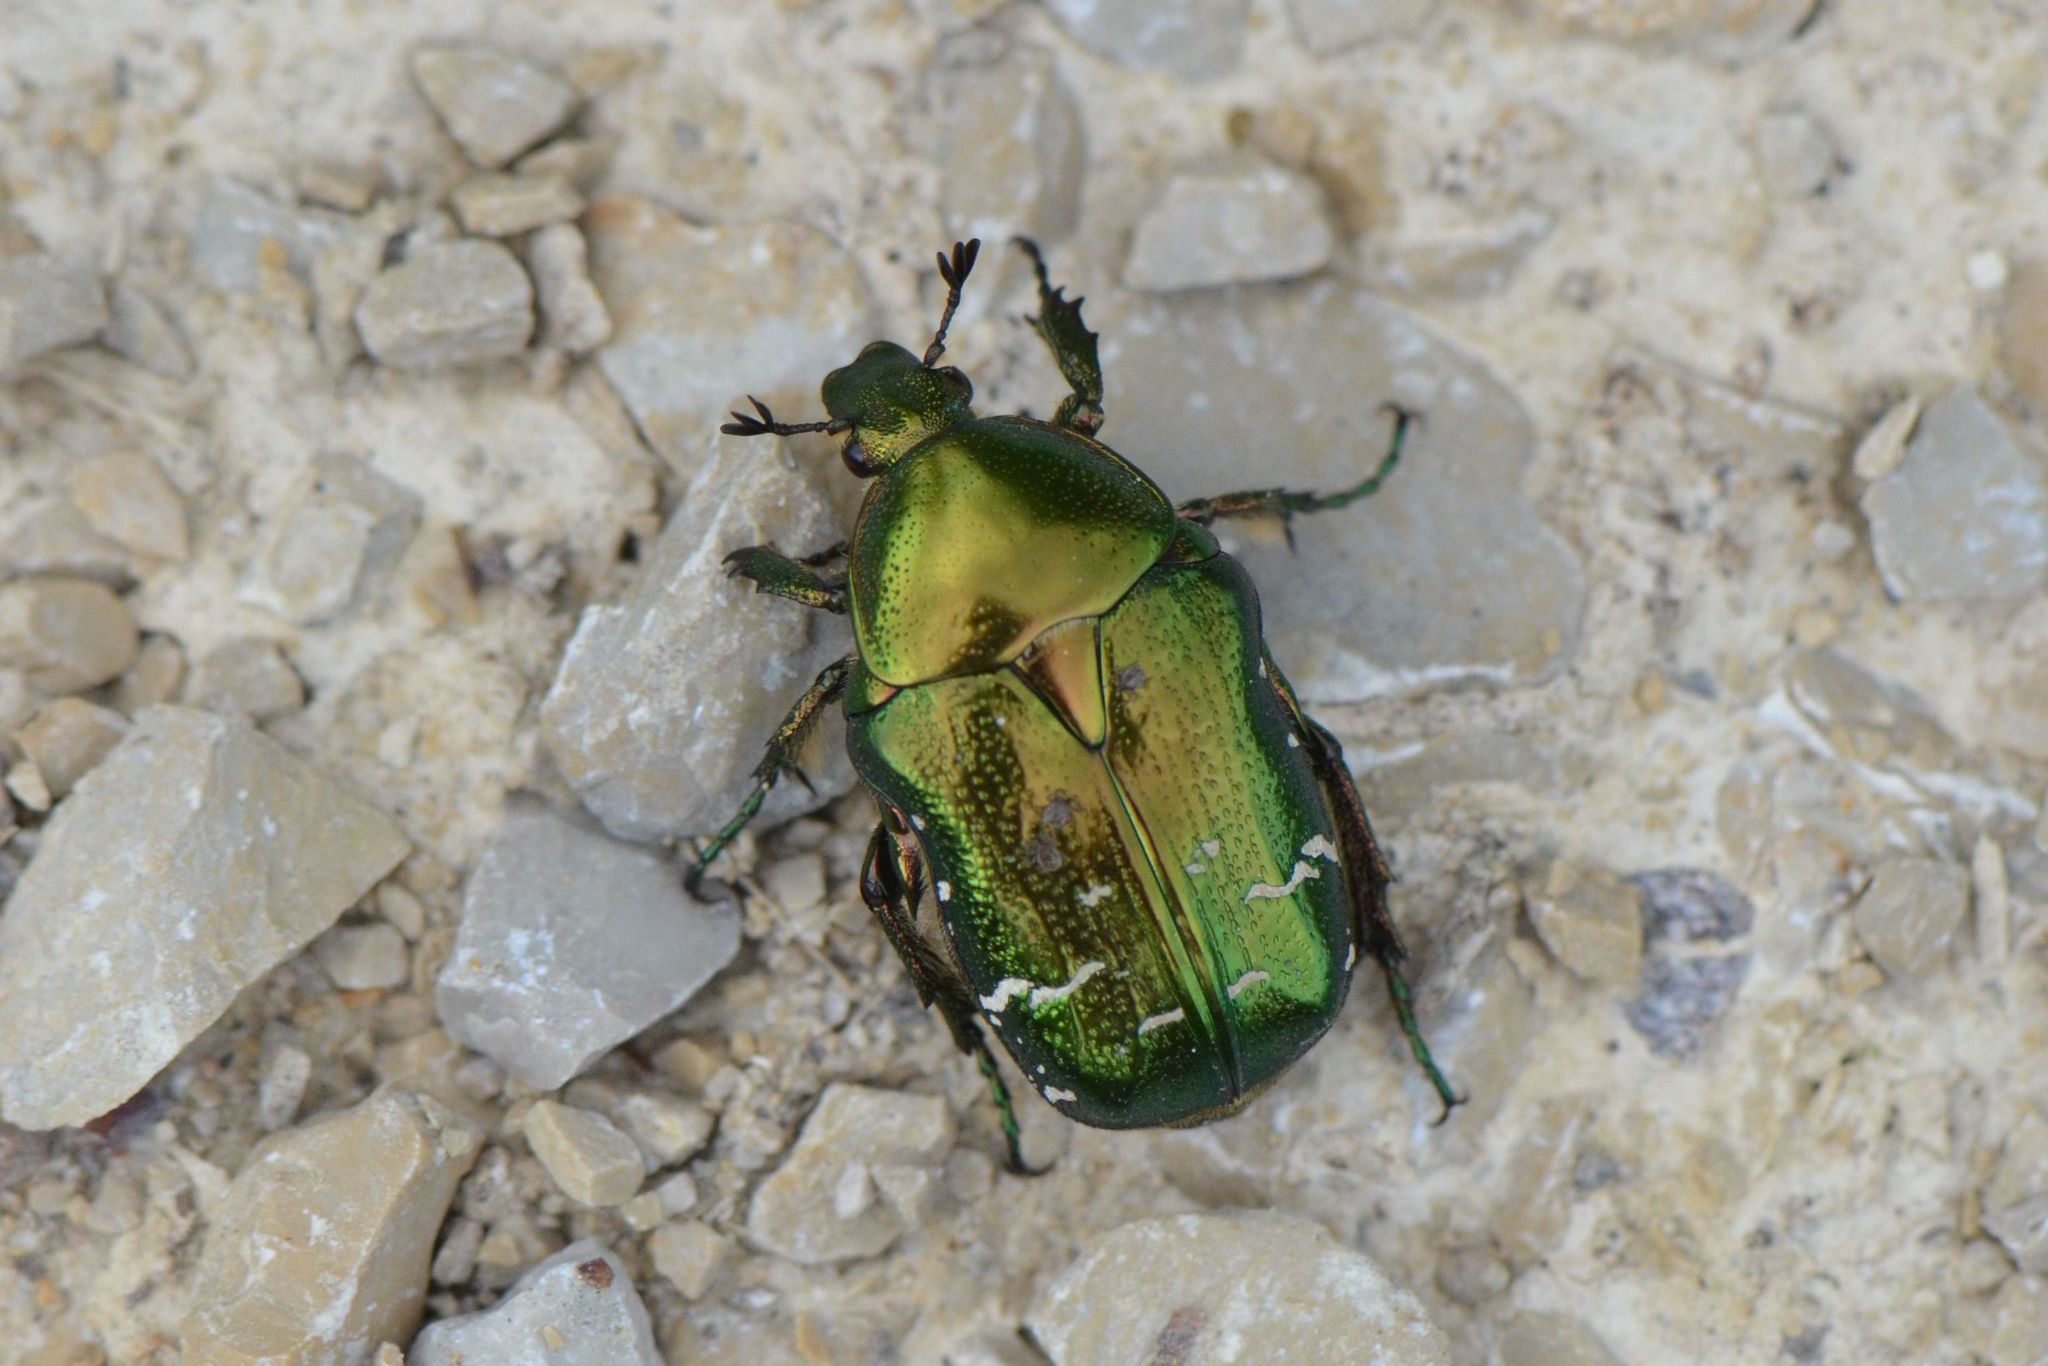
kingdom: Animalia
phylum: Arthropoda
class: Insecta
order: Coleoptera
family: Scarabaeidae
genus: Cetonia
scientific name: Cetonia aurata
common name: Rose chafer
